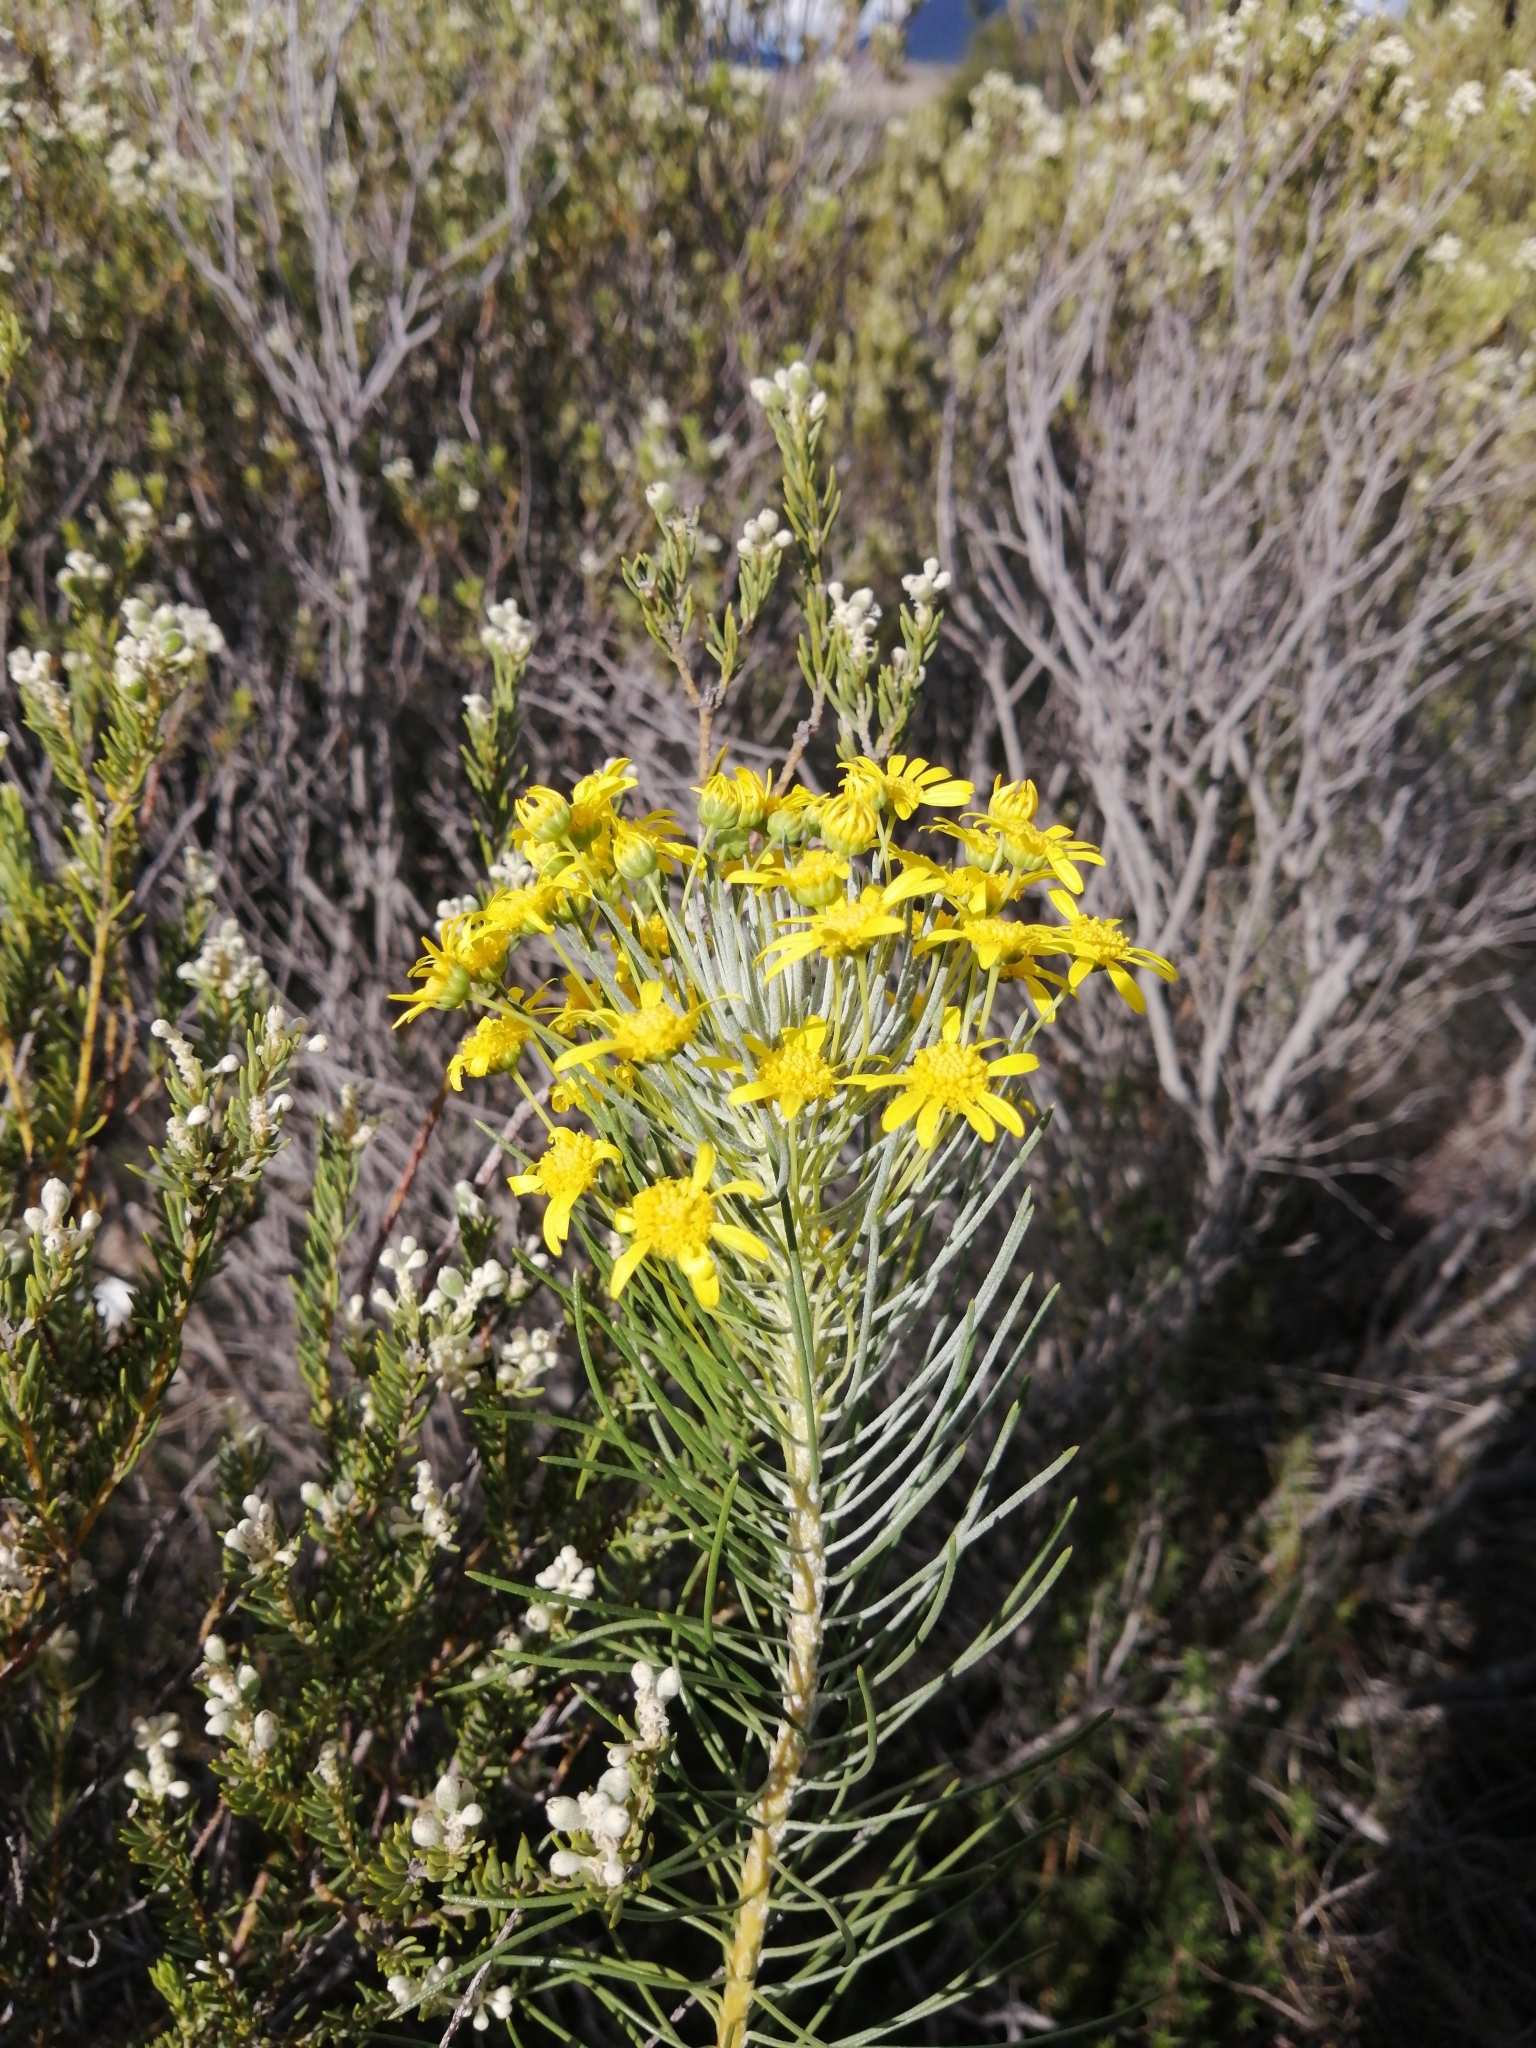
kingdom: Plantae
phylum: Tracheophyta
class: Magnoliopsida
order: Asterales
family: Asteraceae
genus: Euryops
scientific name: Euryops tenuissimus
